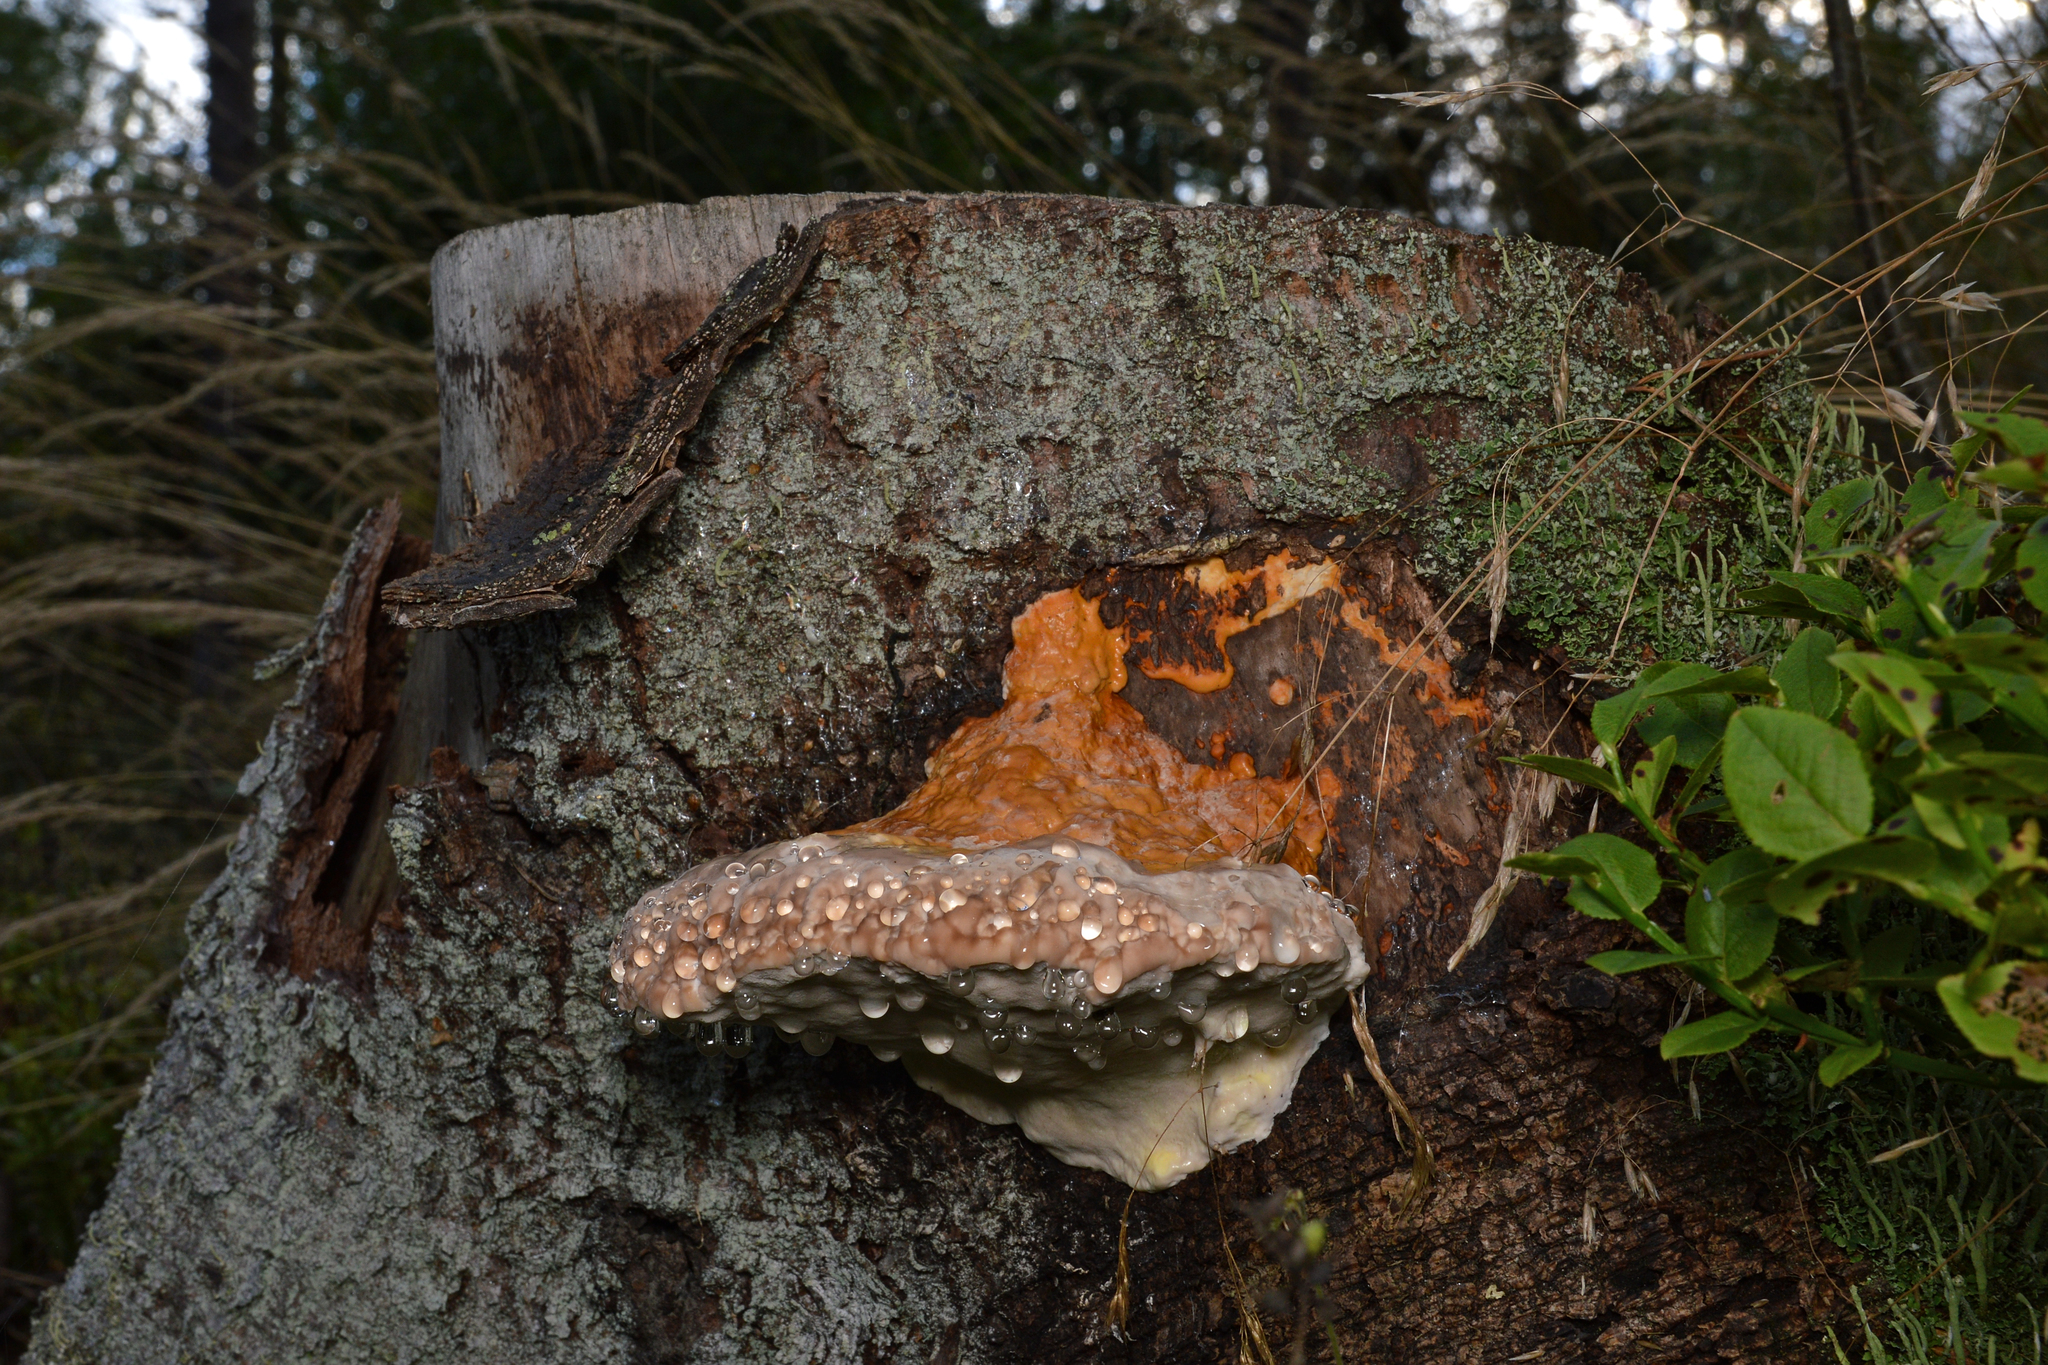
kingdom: Fungi
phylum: Basidiomycota
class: Agaricomycetes
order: Polyporales
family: Fomitopsidaceae
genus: Fomitopsis
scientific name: Fomitopsis pinicola
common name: Red-belted bracket
